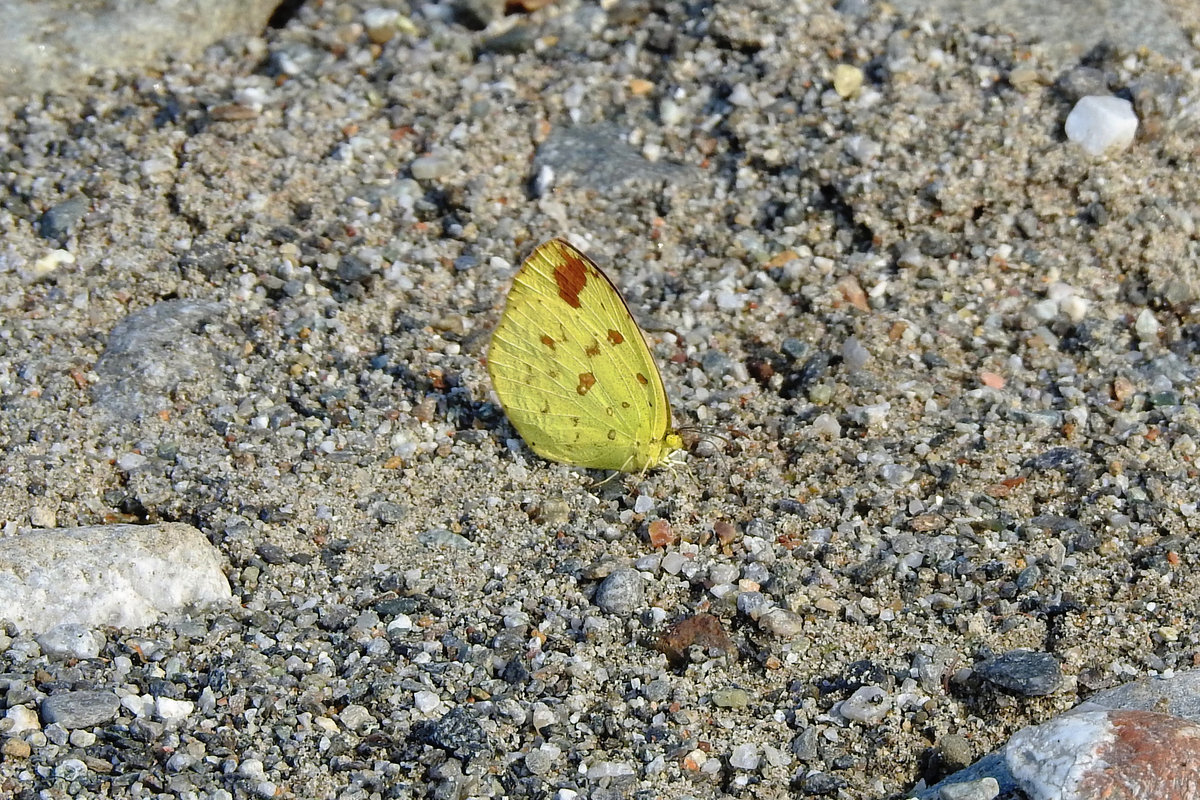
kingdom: Animalia
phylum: Arthropoda
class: Insecta
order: Lepidoptera
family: Pieridae
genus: Eurema
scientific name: Eurema hecabe
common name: Pale grass yellow
